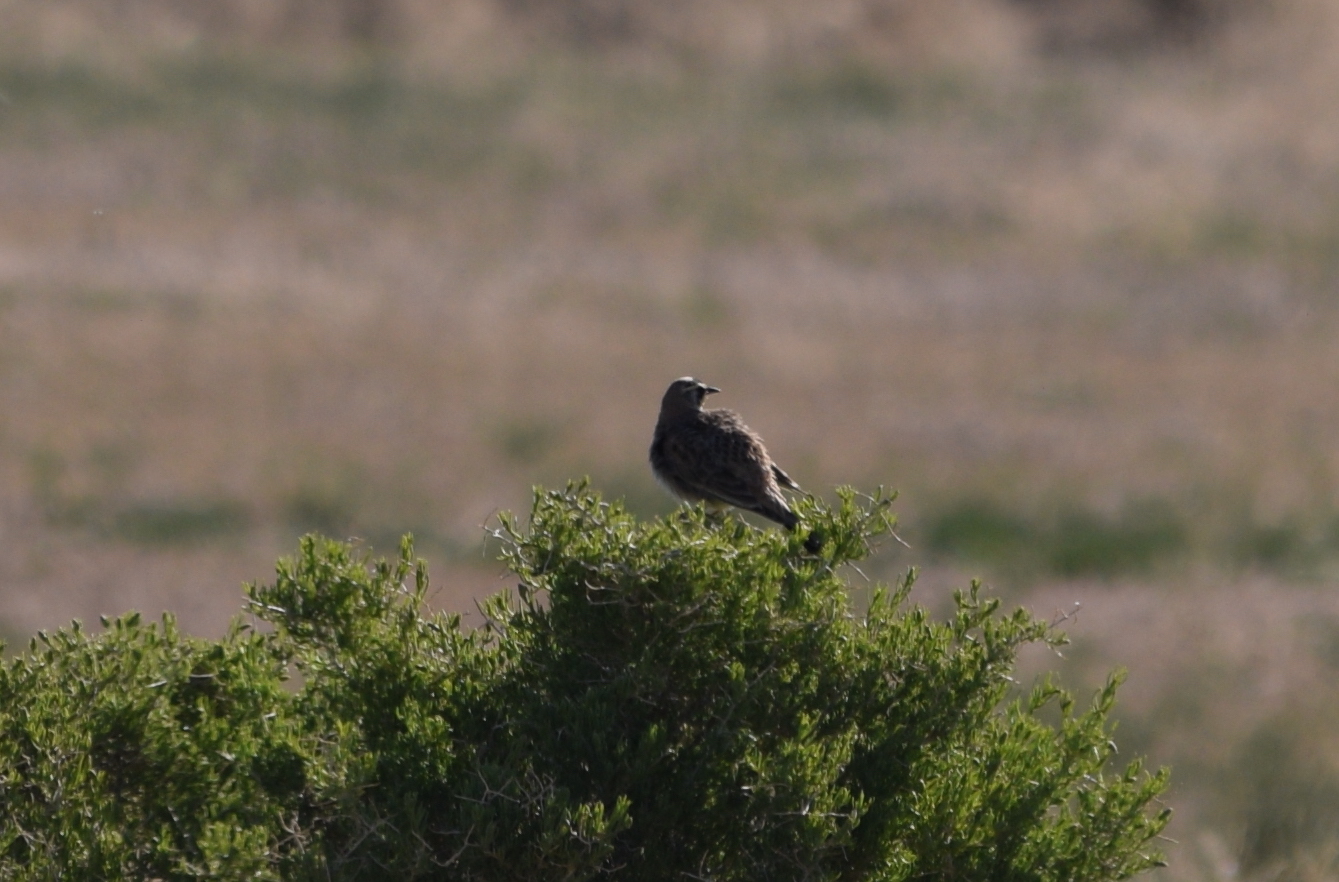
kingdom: Animalia
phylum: Chordata
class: Aves
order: Passeriformes
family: Alaudidae
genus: Eremophila
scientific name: Eremophila alpestris
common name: Horned lark
